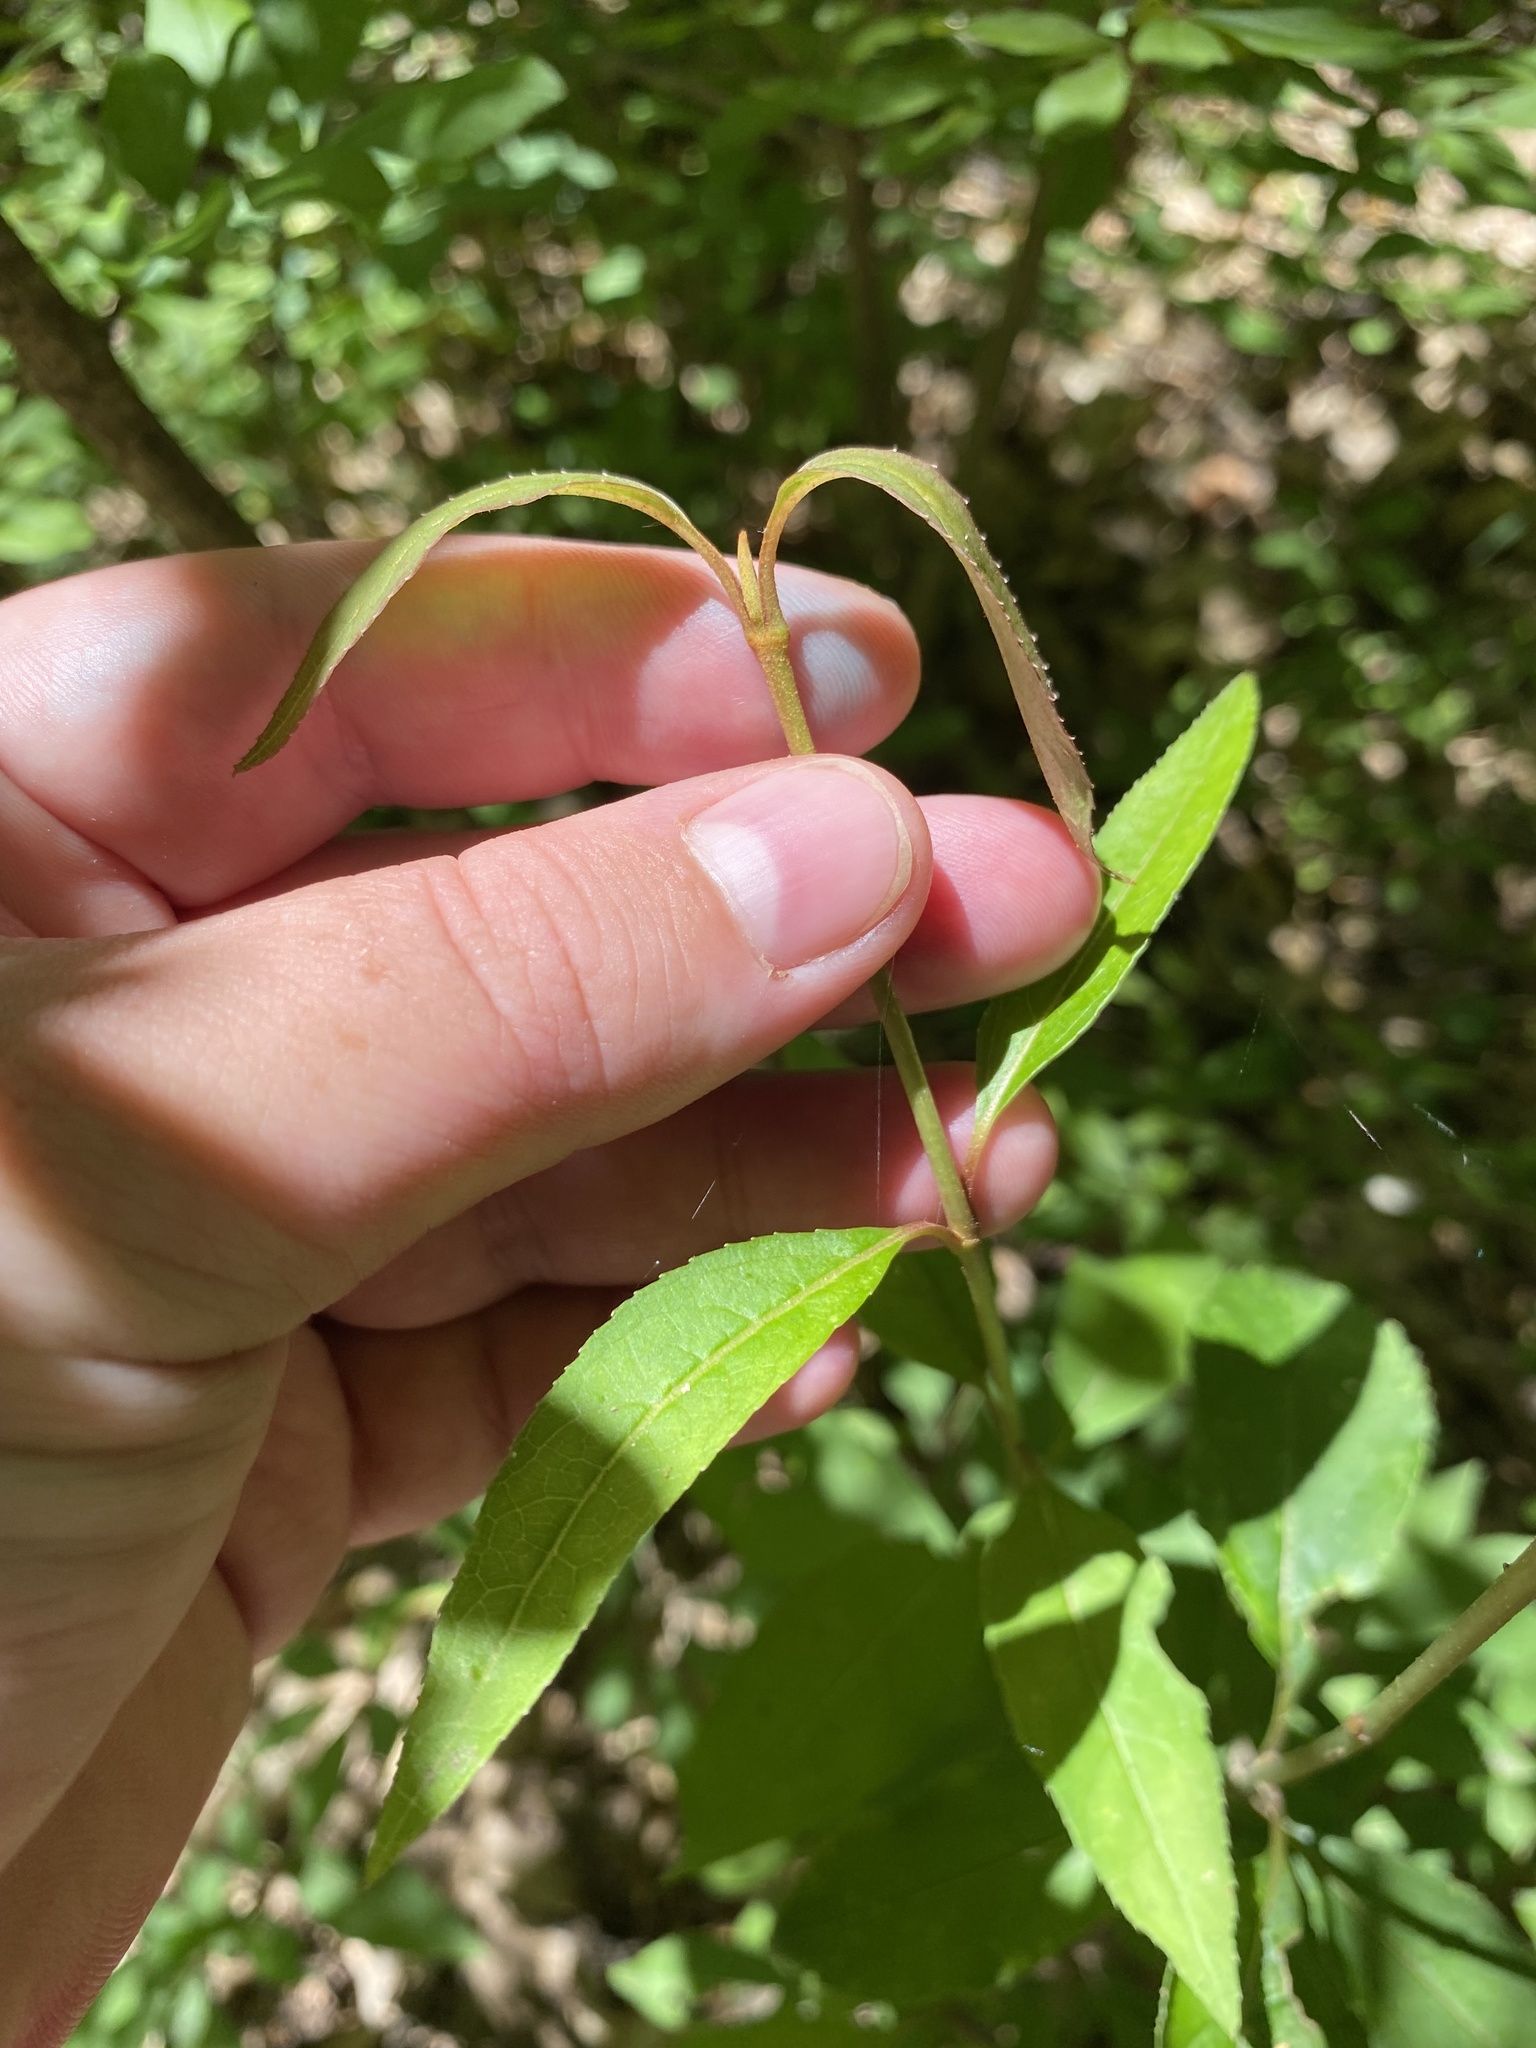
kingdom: Plantae
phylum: Tracheophyta
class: Magnoliopsida
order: Celastrales
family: Celastraceae
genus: Euonymus
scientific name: Euonymus alatus
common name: Winged euonymus
